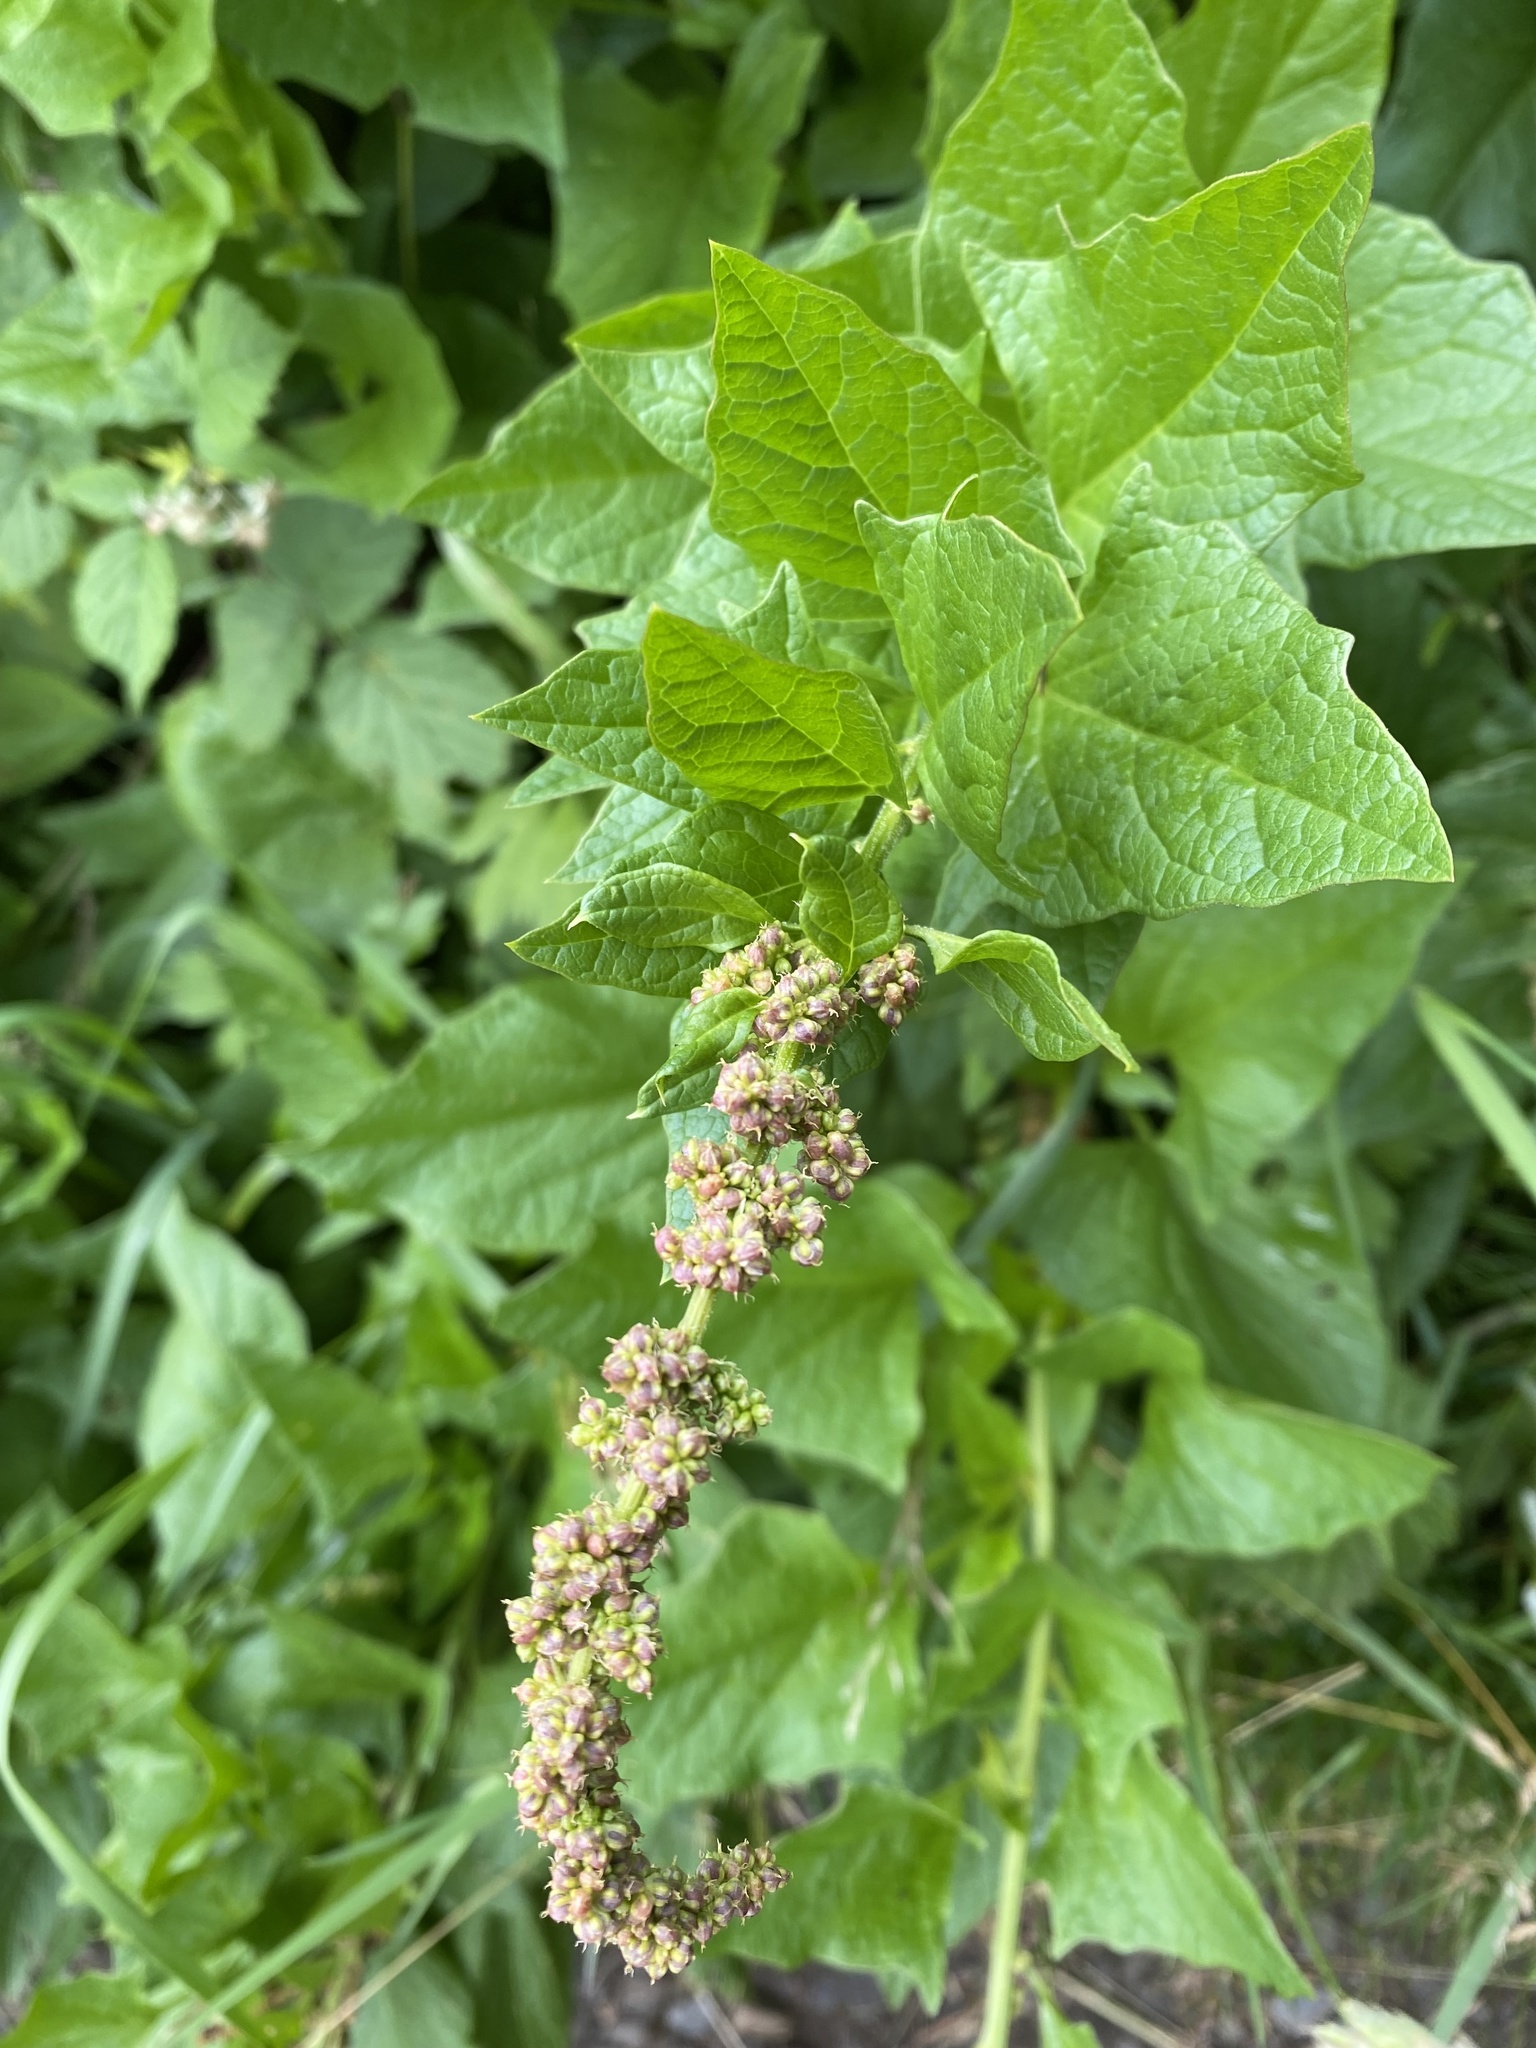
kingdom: Plantae
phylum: Tracheophyta
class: Magnoliopsida
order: Caryophyllales
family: Amaranthaceae
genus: Blitum
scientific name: Blitum bonus-henricus
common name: Good king henry
